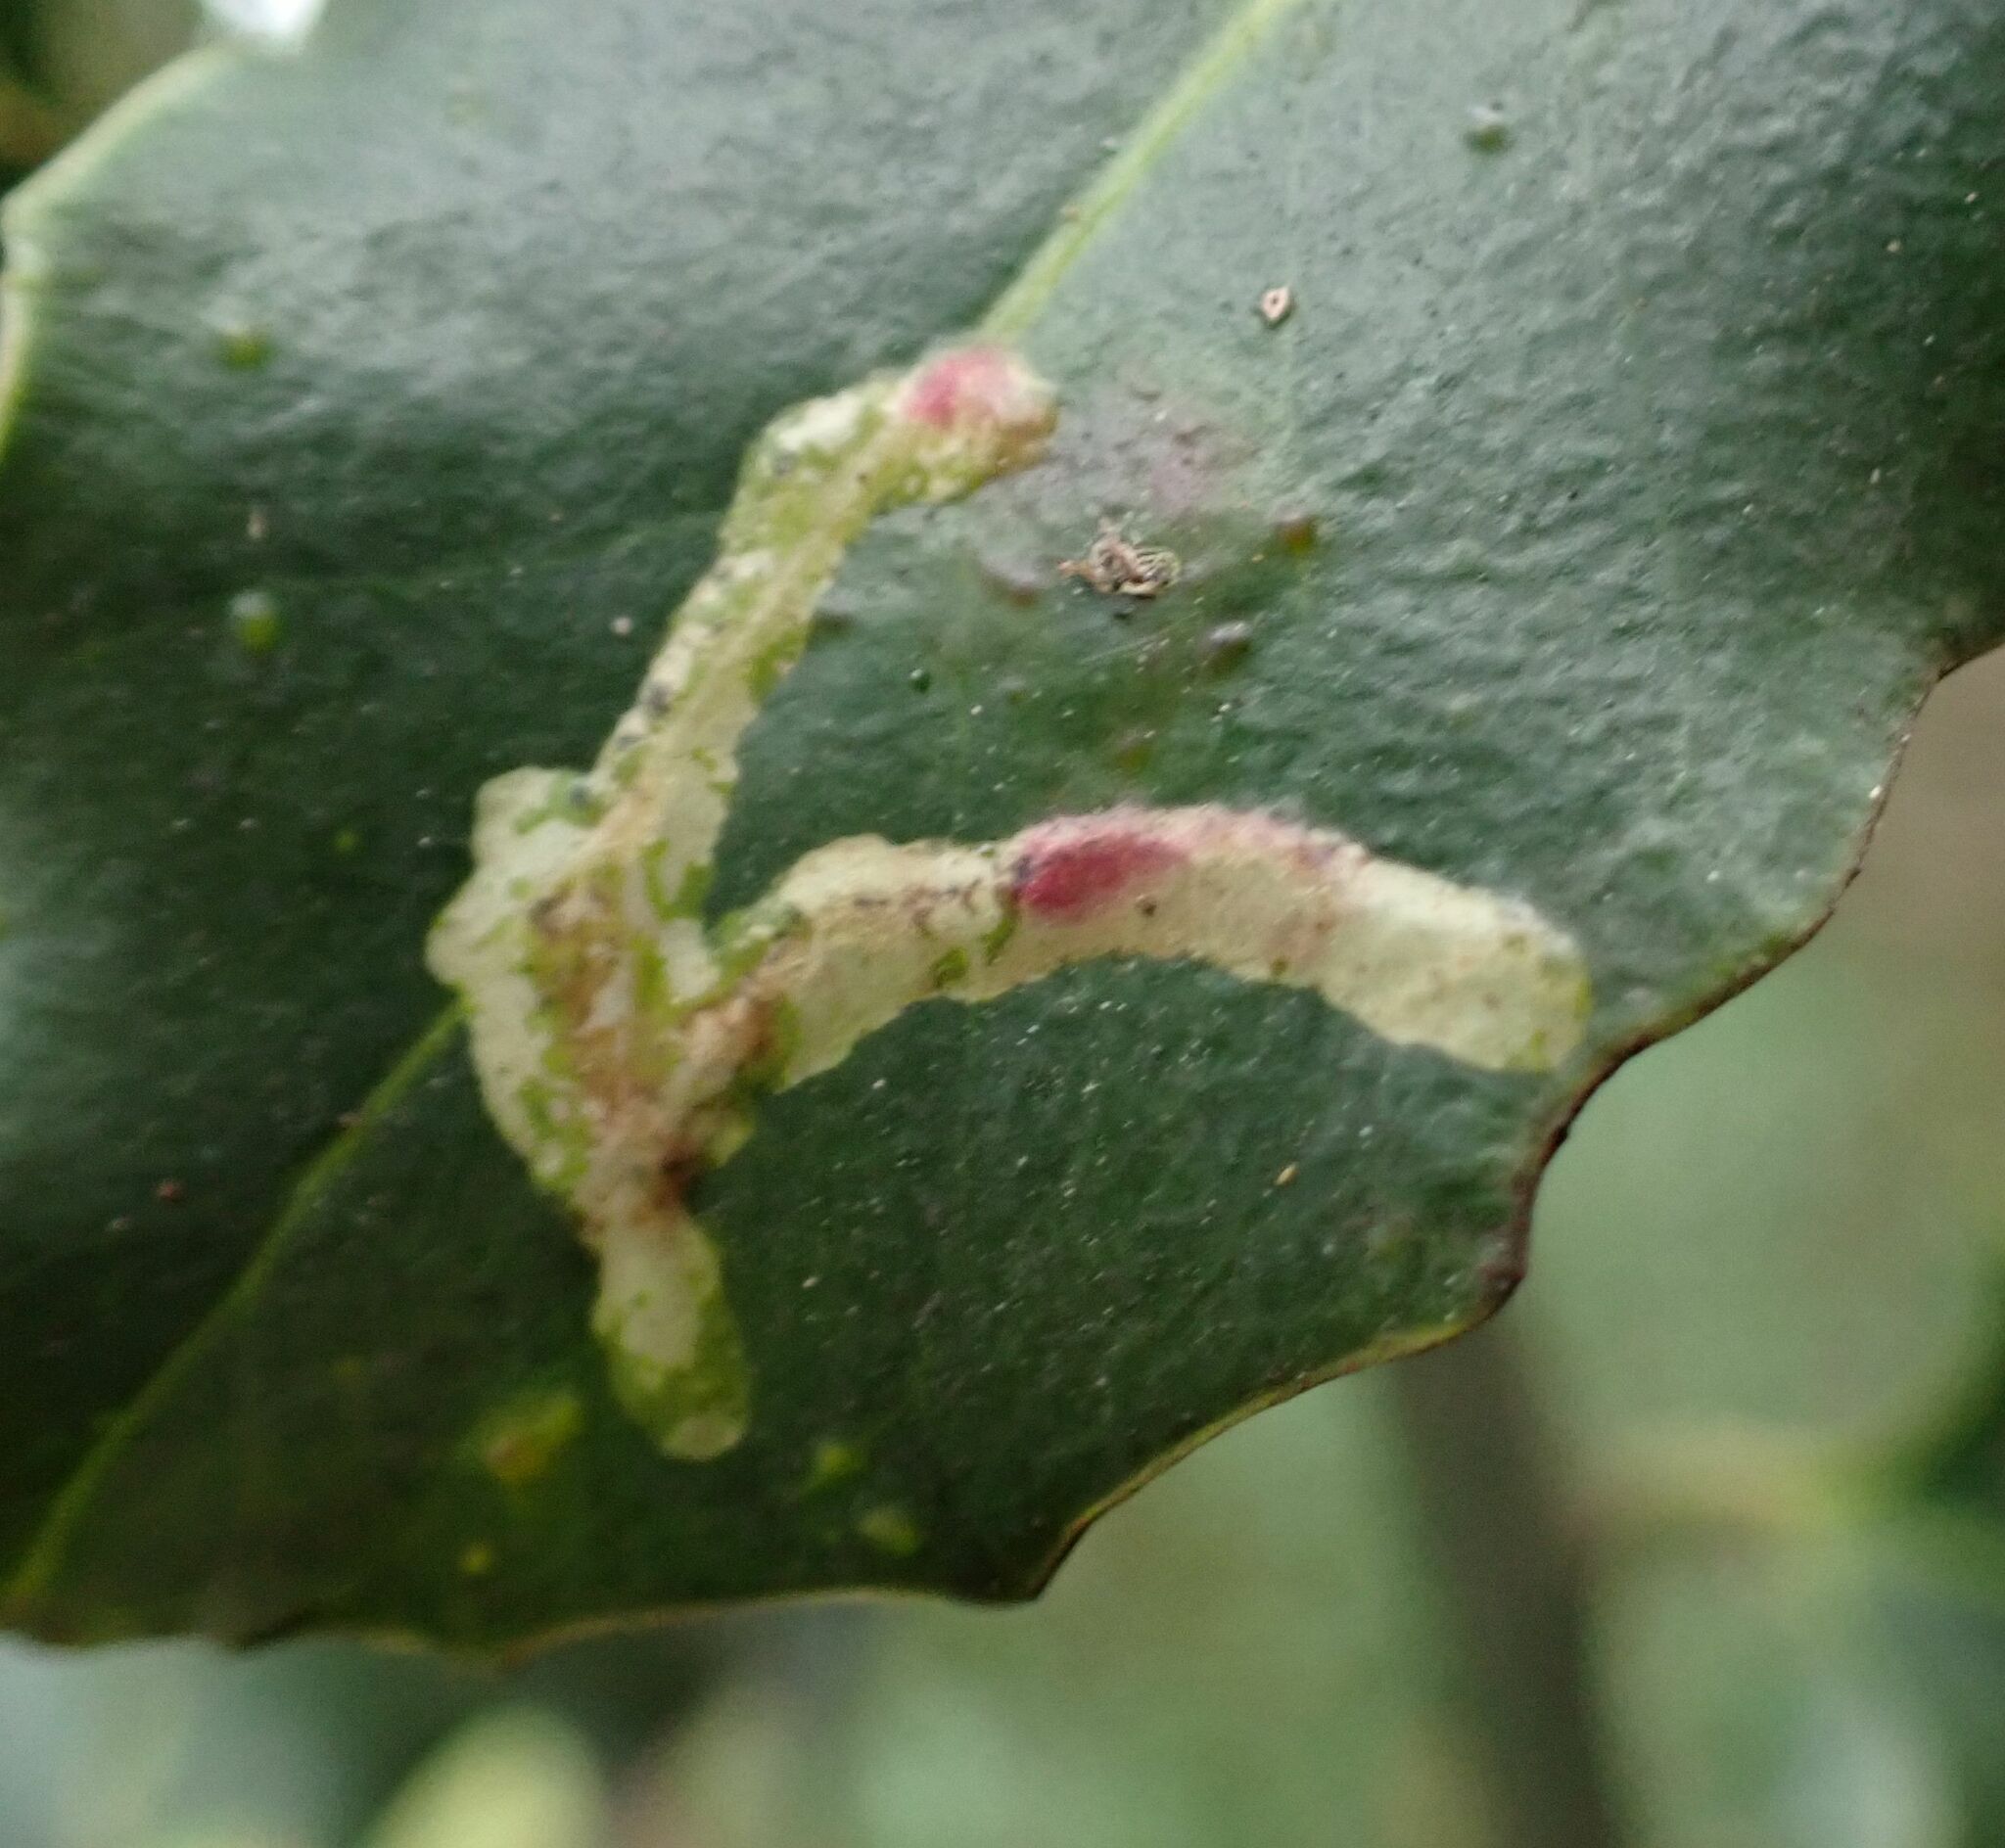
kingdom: Animalia
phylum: Arthropoda
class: Insecta
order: Diptera
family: Agromyzidae
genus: Phytomyza
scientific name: Phytomyza ilicis
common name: Holly leafminer
